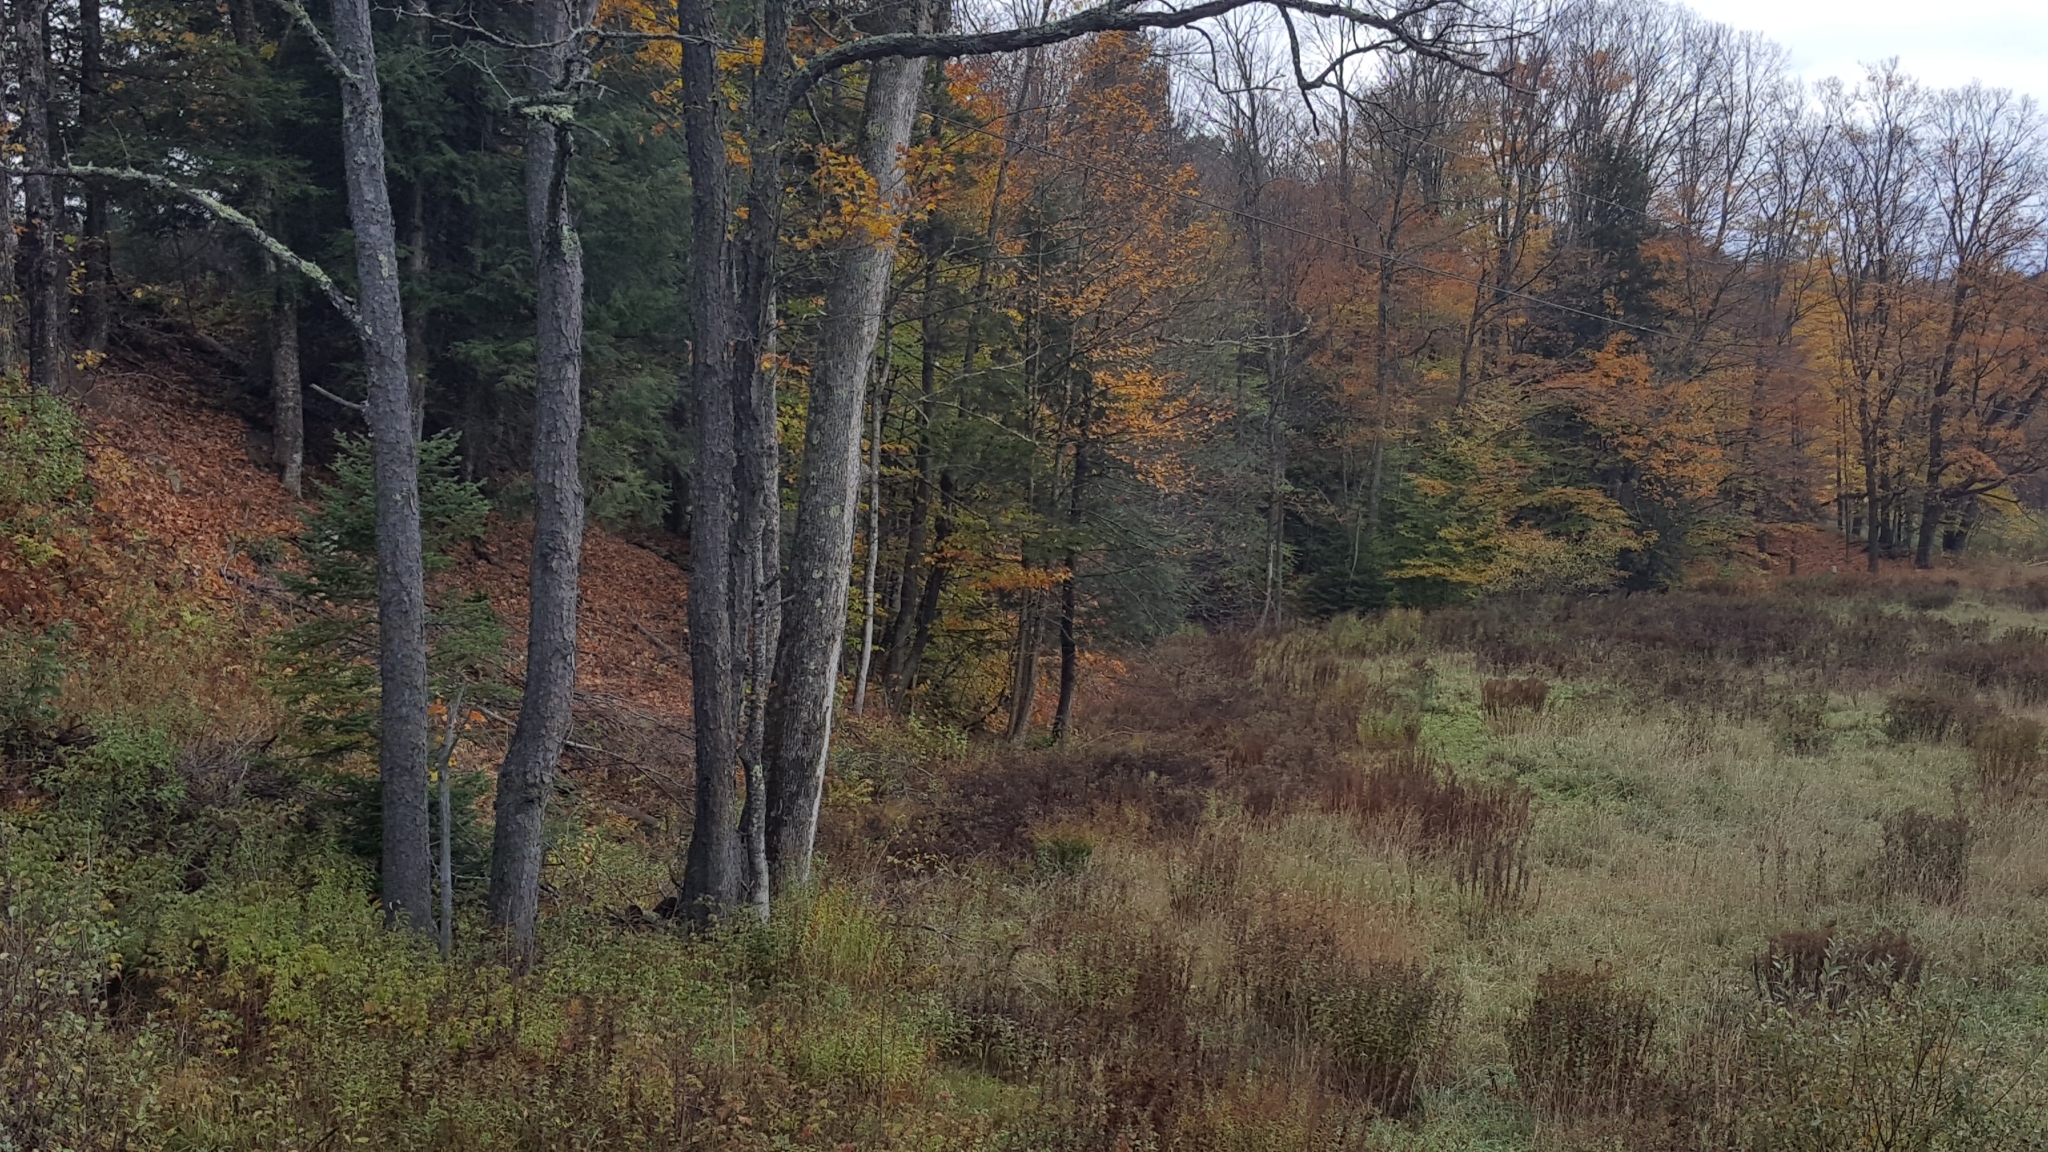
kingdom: Plantae
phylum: Tracheophyta
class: Magnoliopsida
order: Rosales
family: Rosaceae
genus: Prunus
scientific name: Prunus serotina
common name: Black cherry
